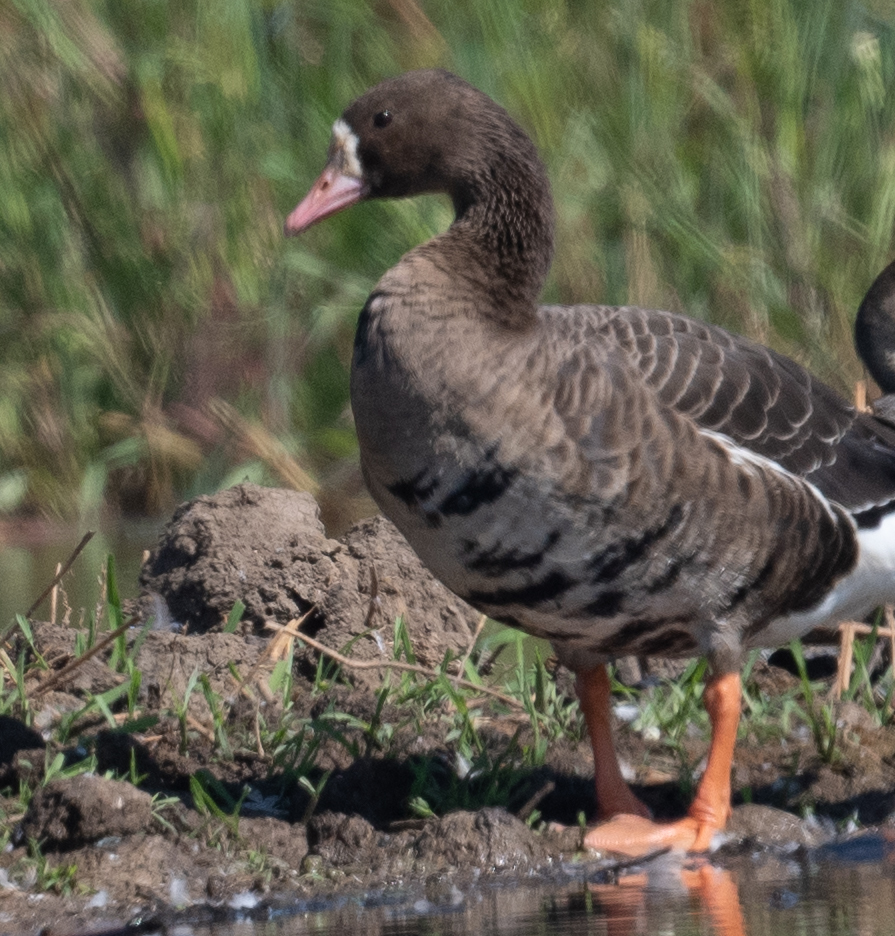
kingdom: Animalia
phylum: Chordata
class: Aves
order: Anseriformes
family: Anatidae
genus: Anser
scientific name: Anser albifrons
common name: Greater white-fronted goose
